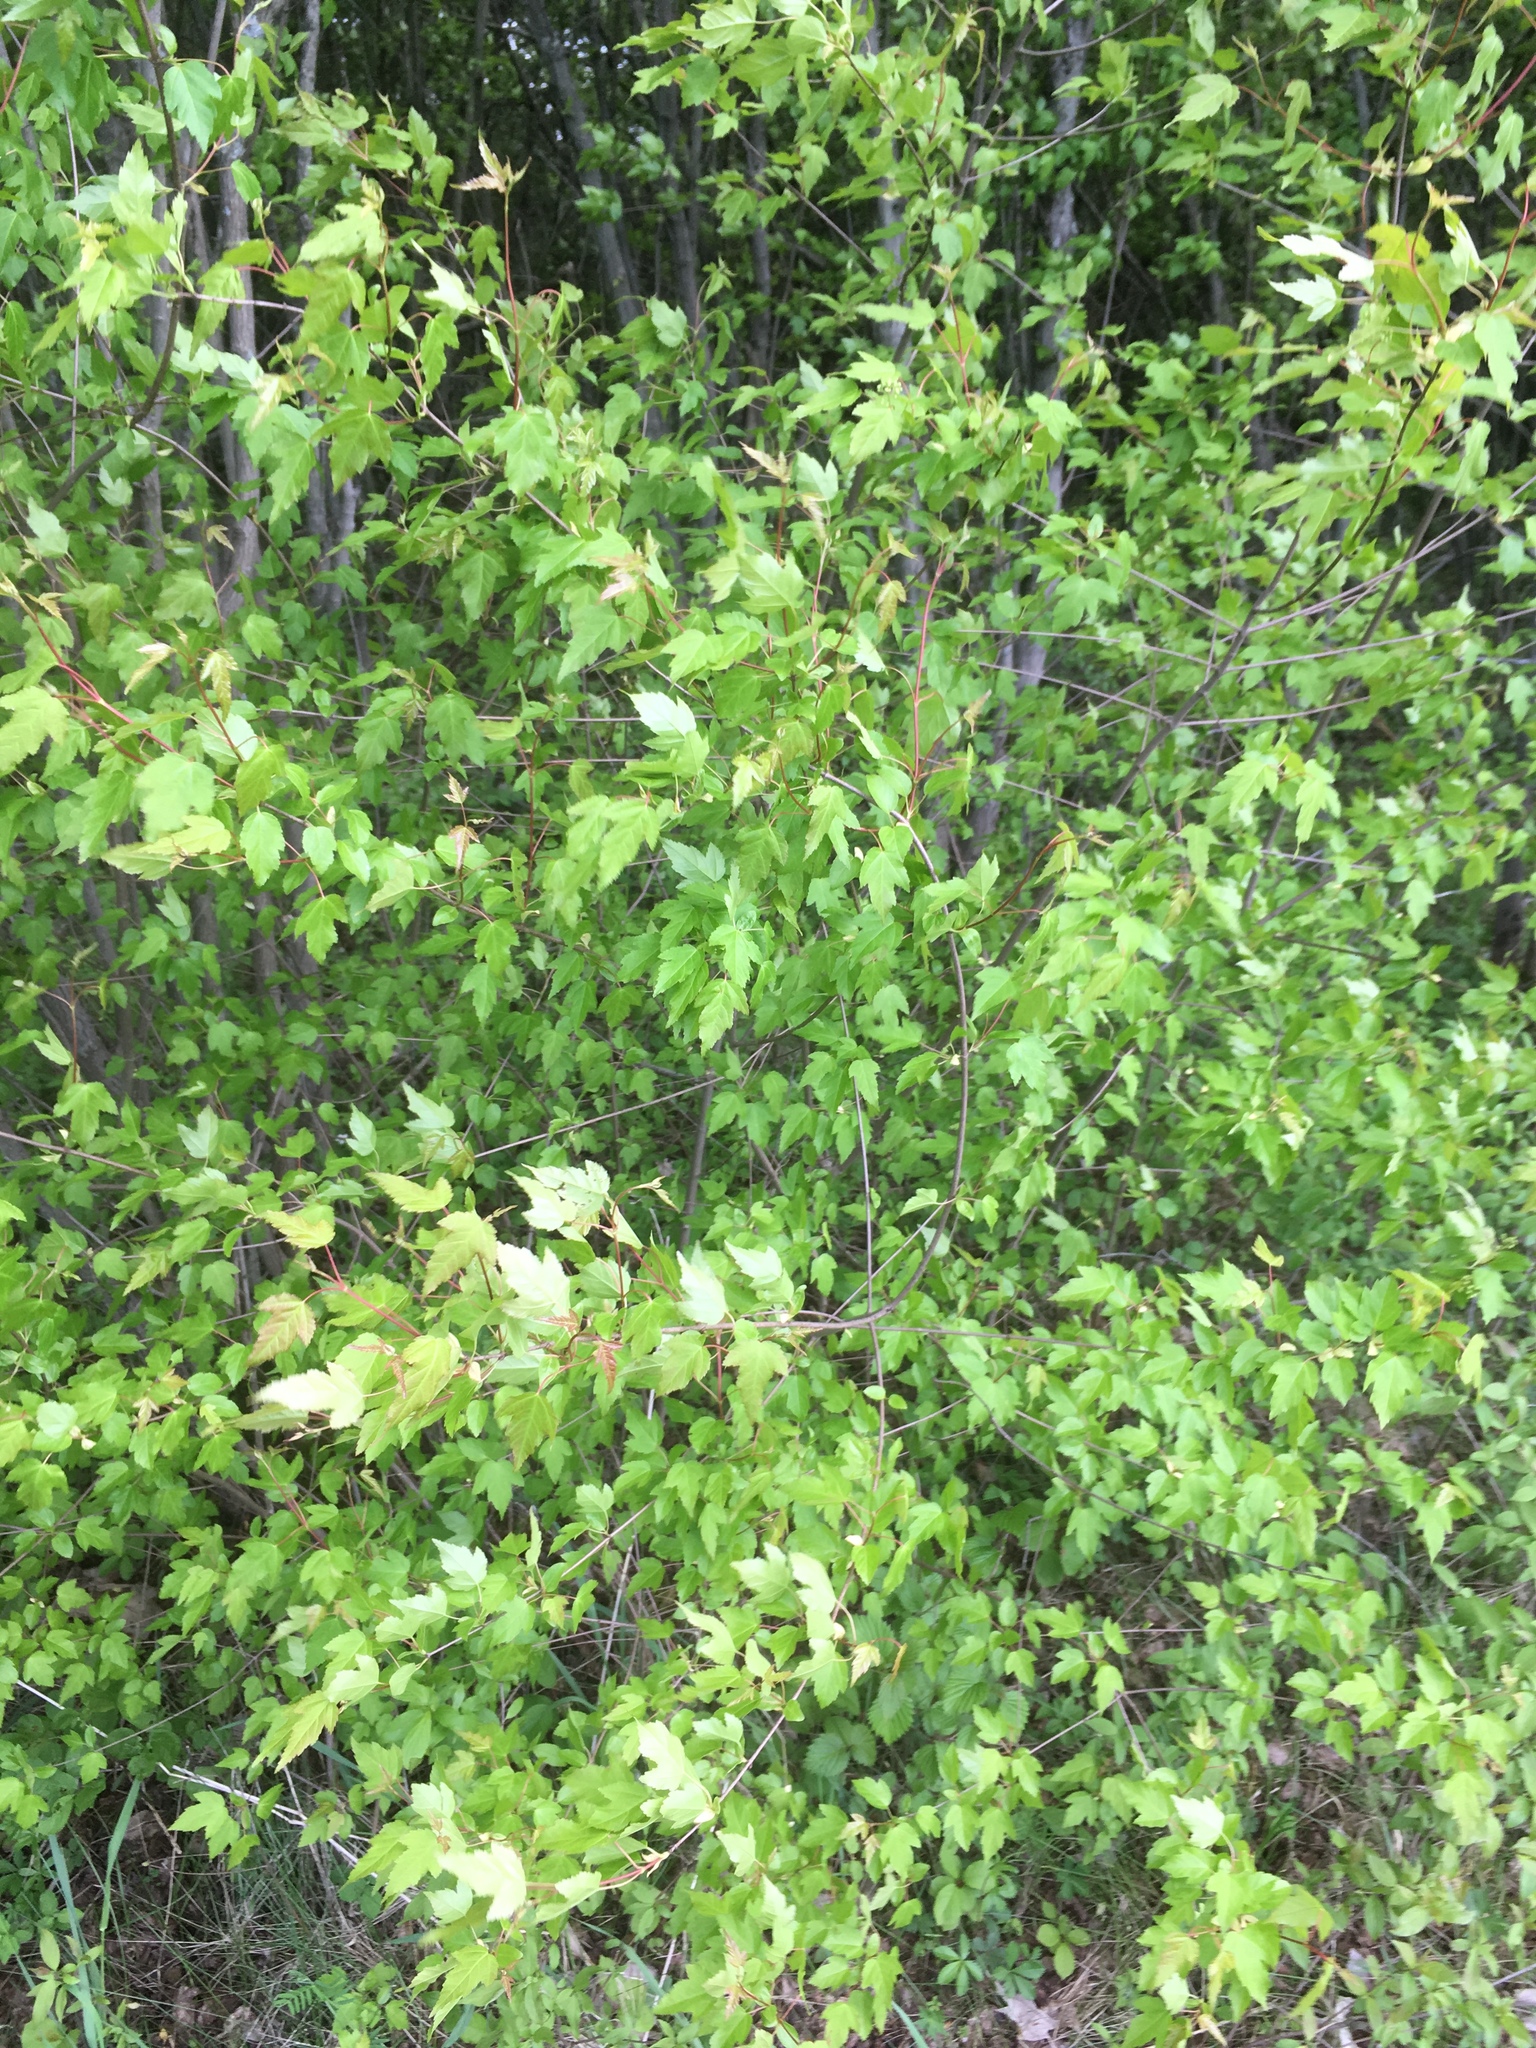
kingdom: Plantae
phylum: Tracheophyta
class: Magnoliopsida
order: Sapindales
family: Sapindaceae
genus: Acer
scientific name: Acer tataricum
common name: Tartar maple
